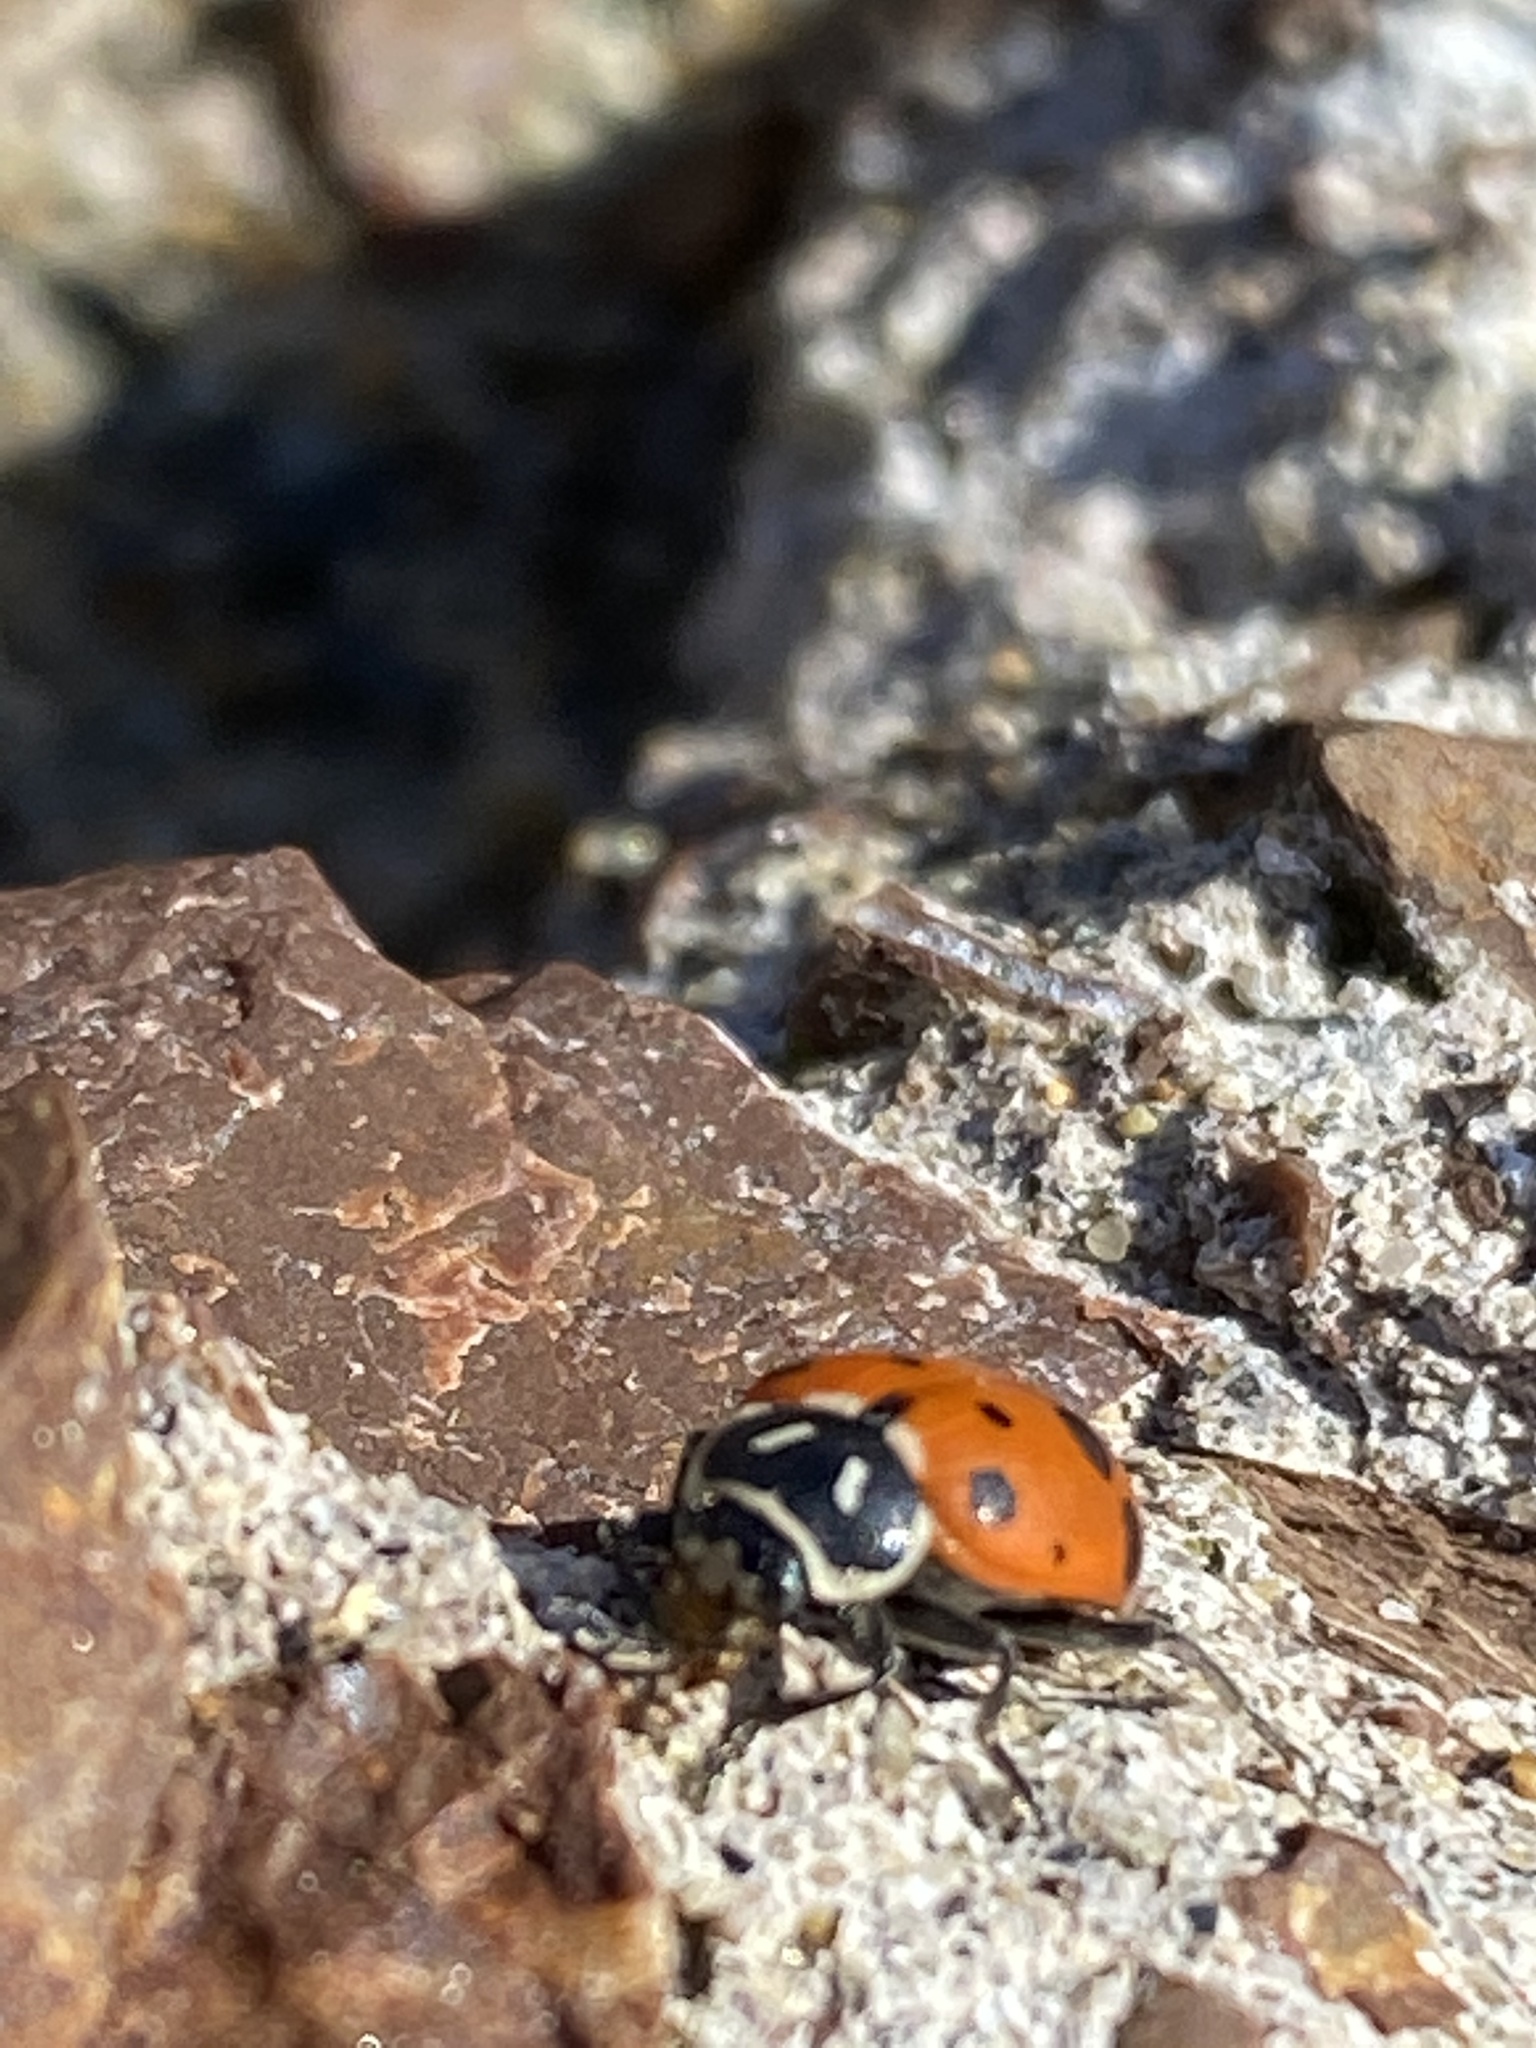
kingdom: Animalia
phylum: Arthropoda
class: Insecta
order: Coleoptera
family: Coccinellidae
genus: Hippodamia
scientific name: Hippodamia convergens
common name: Convergent lady beetle
